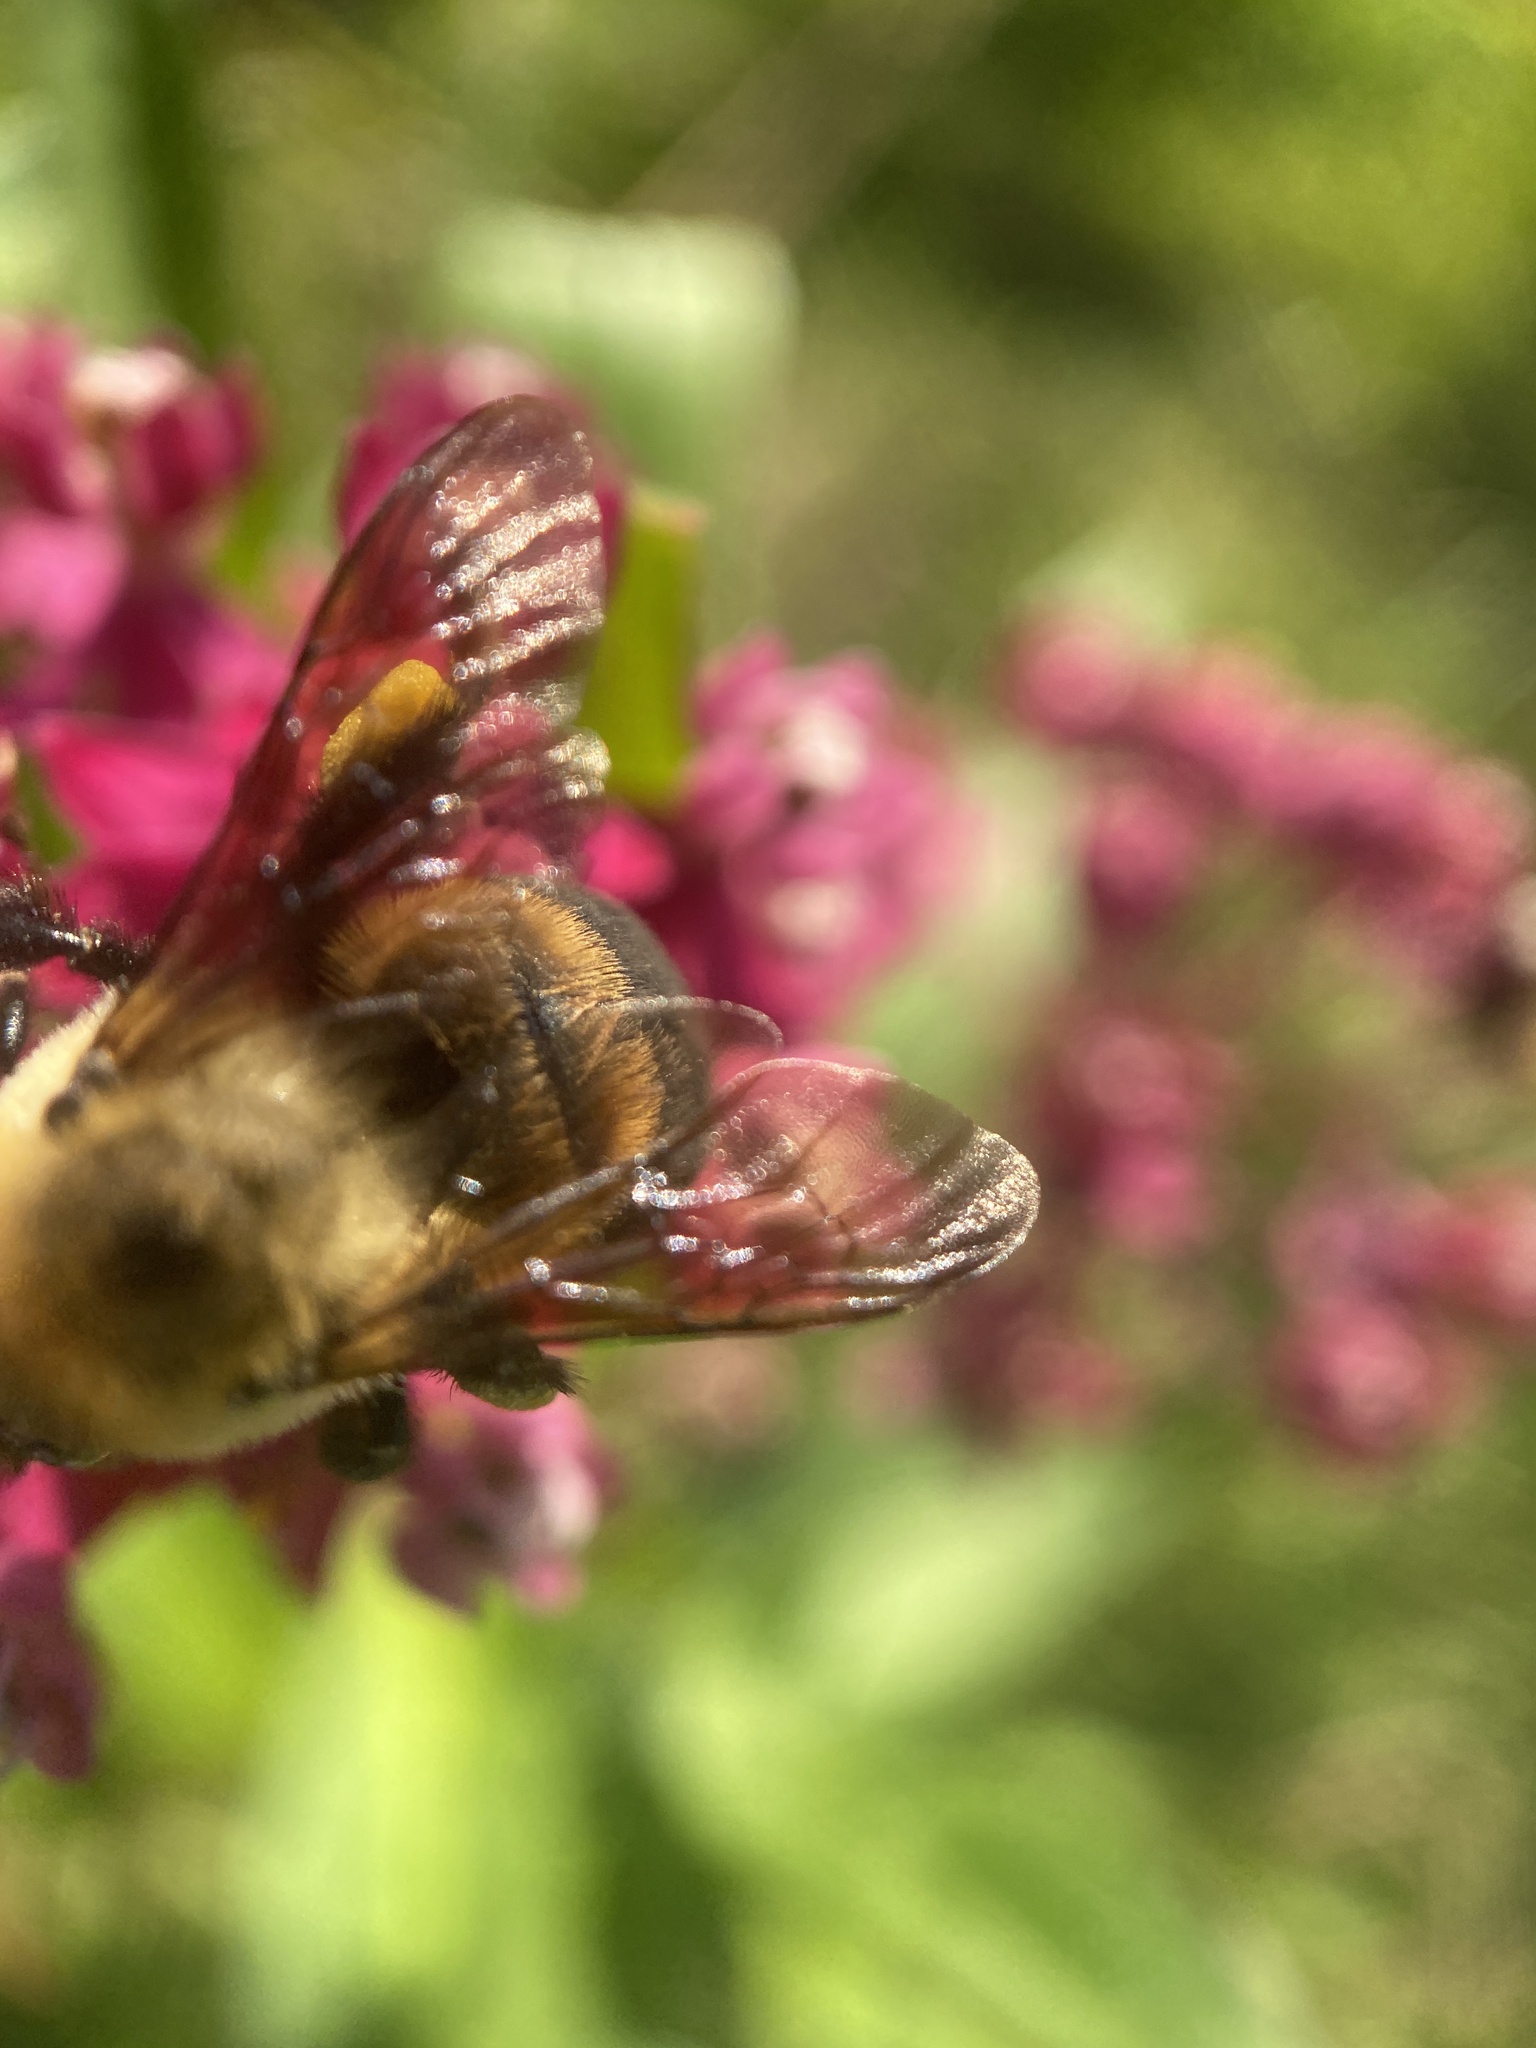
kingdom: Animalia
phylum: Arthropoda
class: Insecta
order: Hymenoptera
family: Apidae
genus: Bombus
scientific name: Bombus griseocollis
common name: Brown-belted bumble bee
